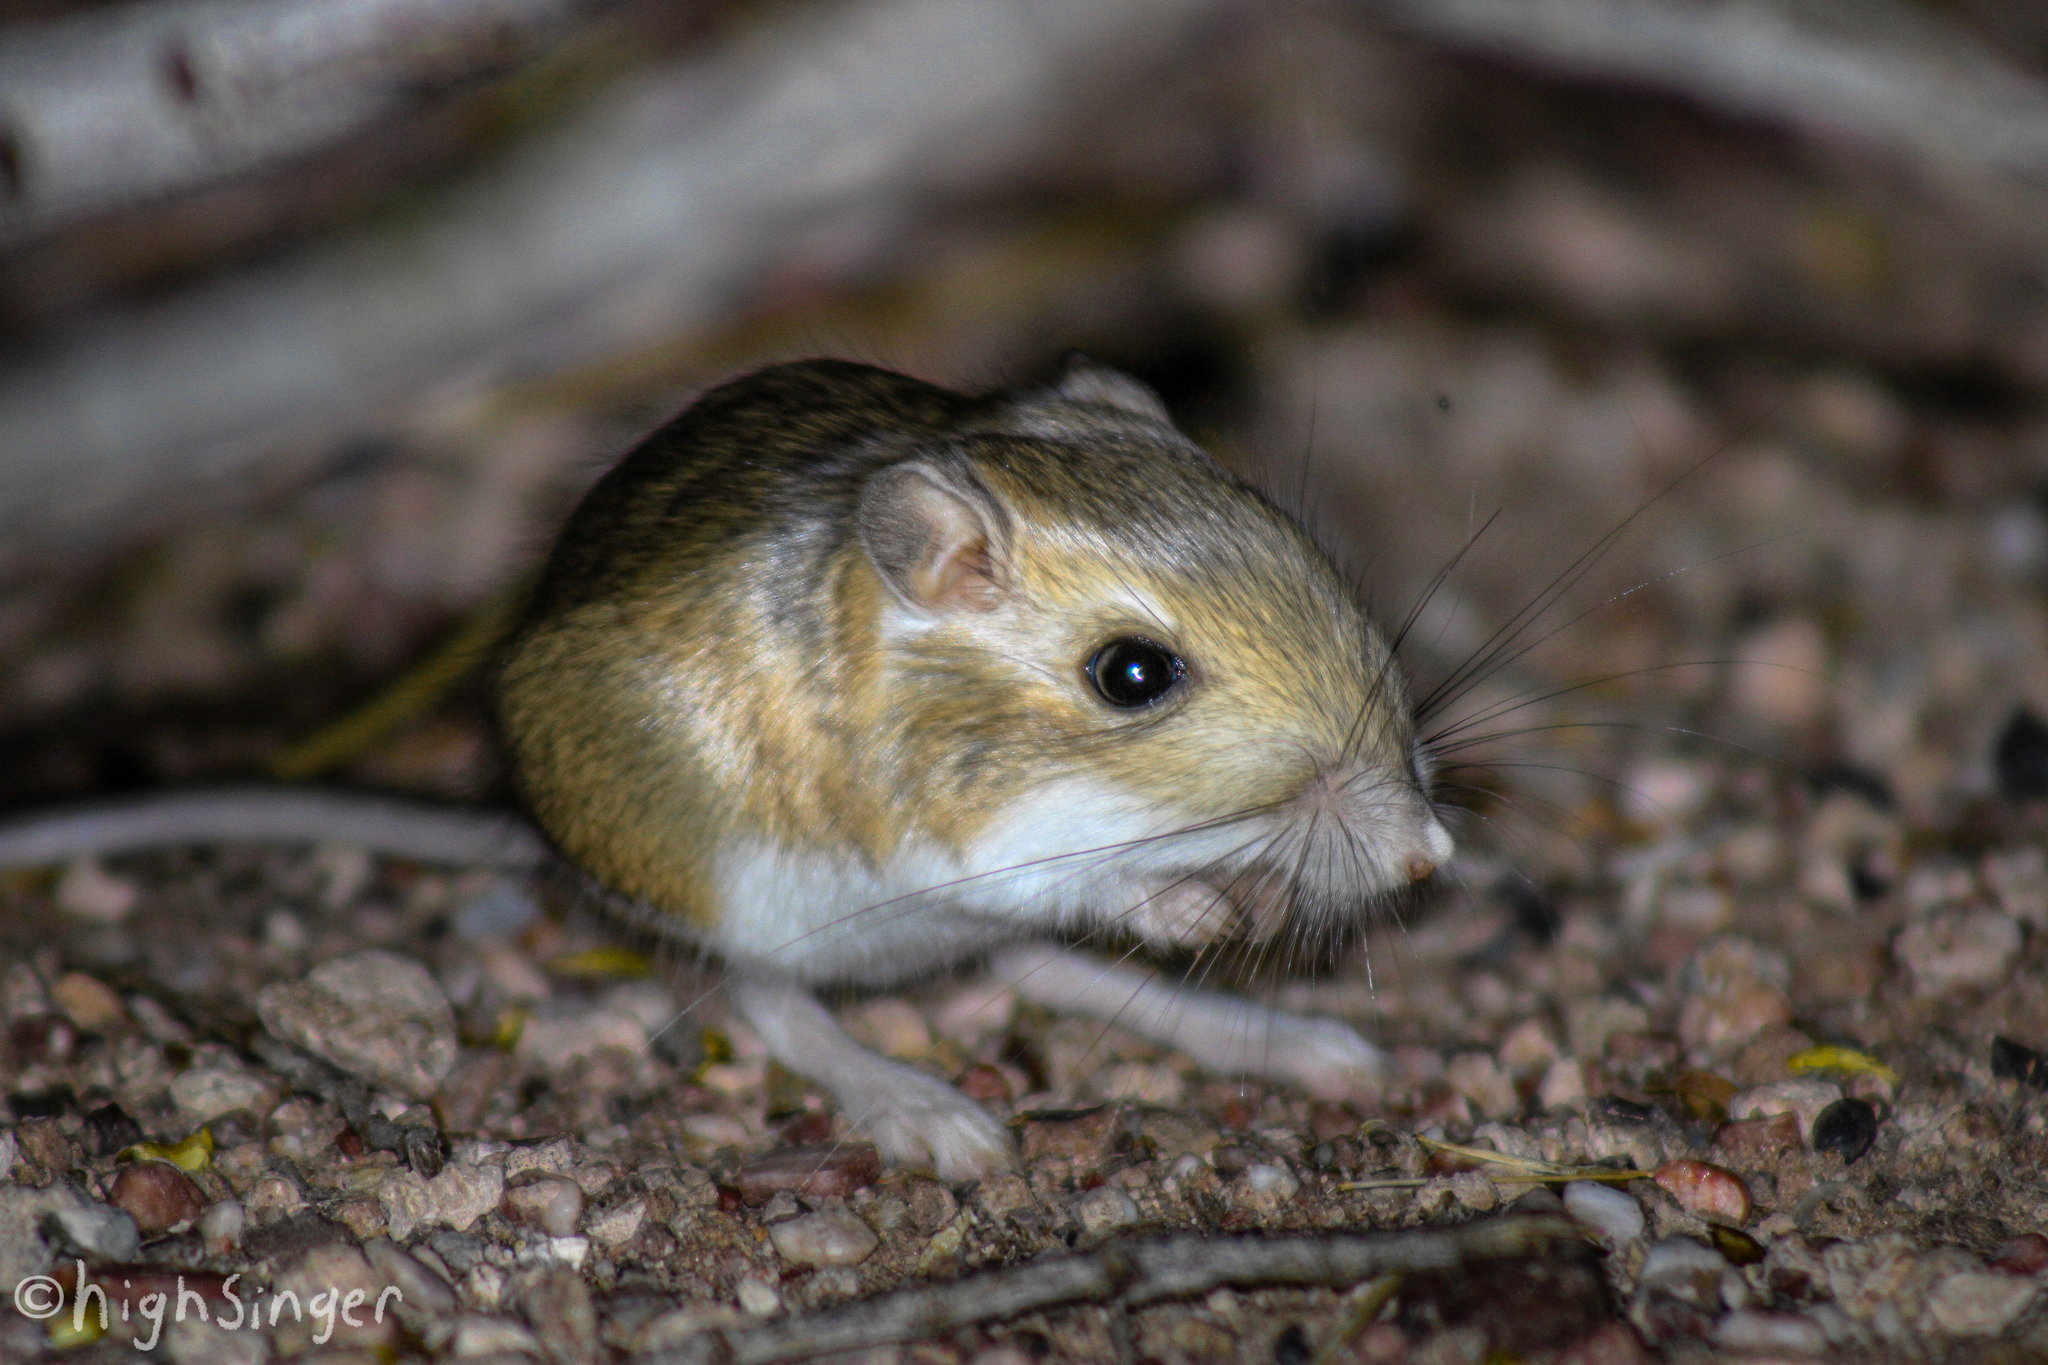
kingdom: Animalia
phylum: Chordata
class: Mammalia
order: Rodentia
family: Heteromyidae
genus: Dipodomys
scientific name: Dipodomys merriami
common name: Merriam's kangaroo rat
